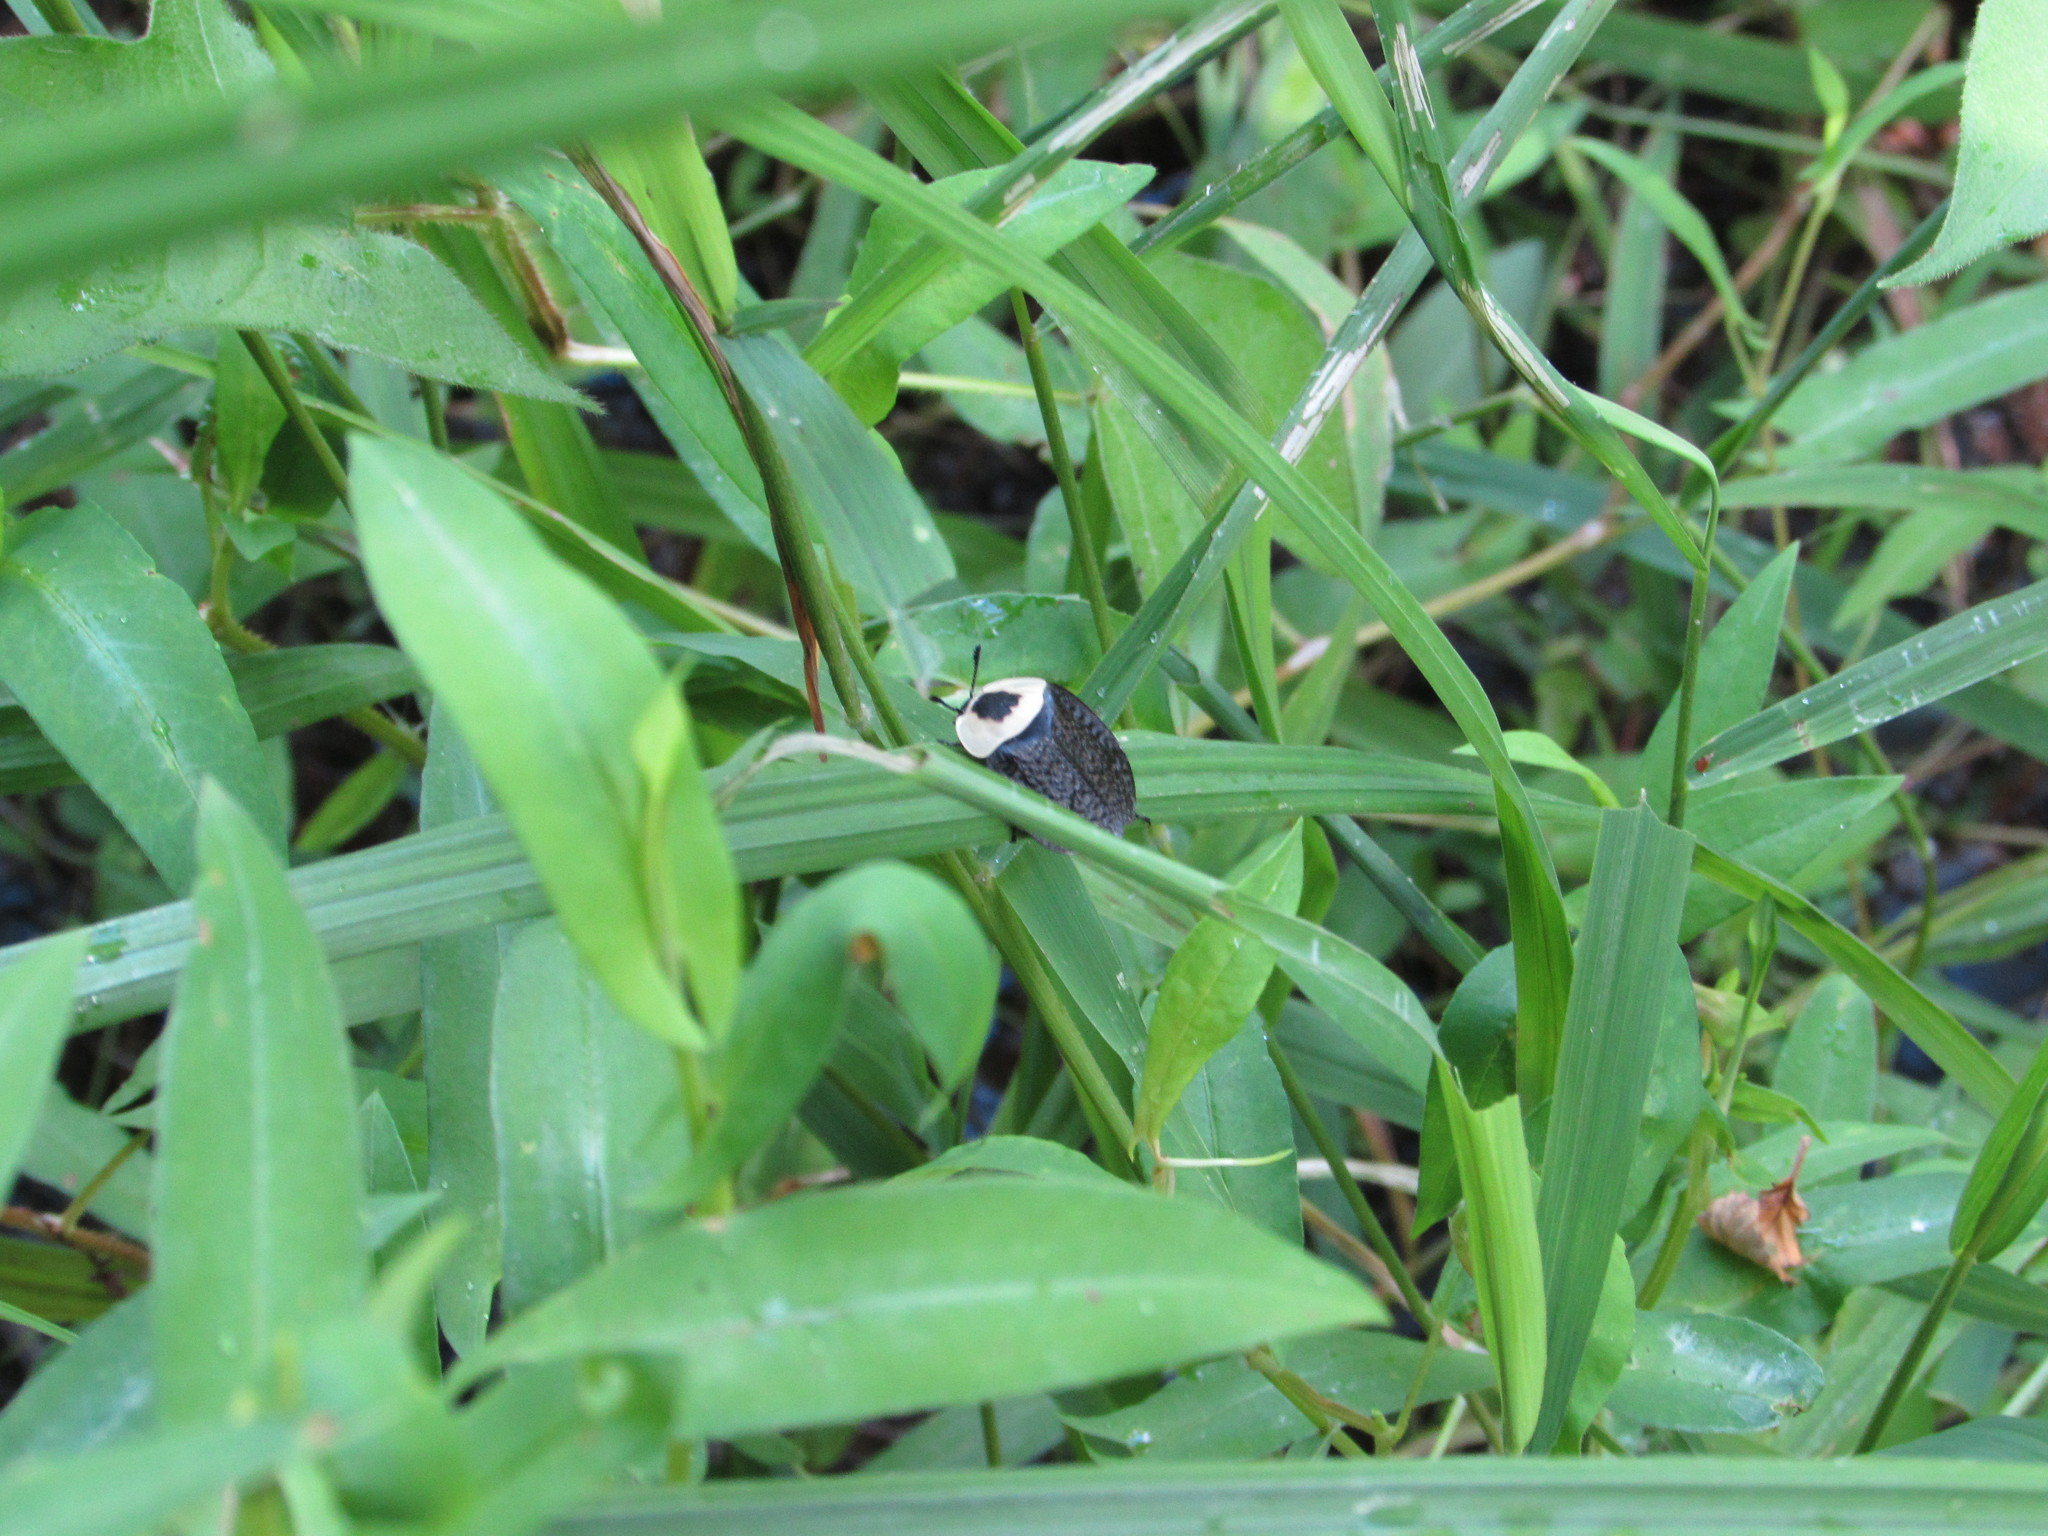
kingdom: Animalia
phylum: Arthropoda
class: Insecta
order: Coleoptera
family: Staphylinidae
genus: Necrophila
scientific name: Necrophila americana
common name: American carrion beetle
